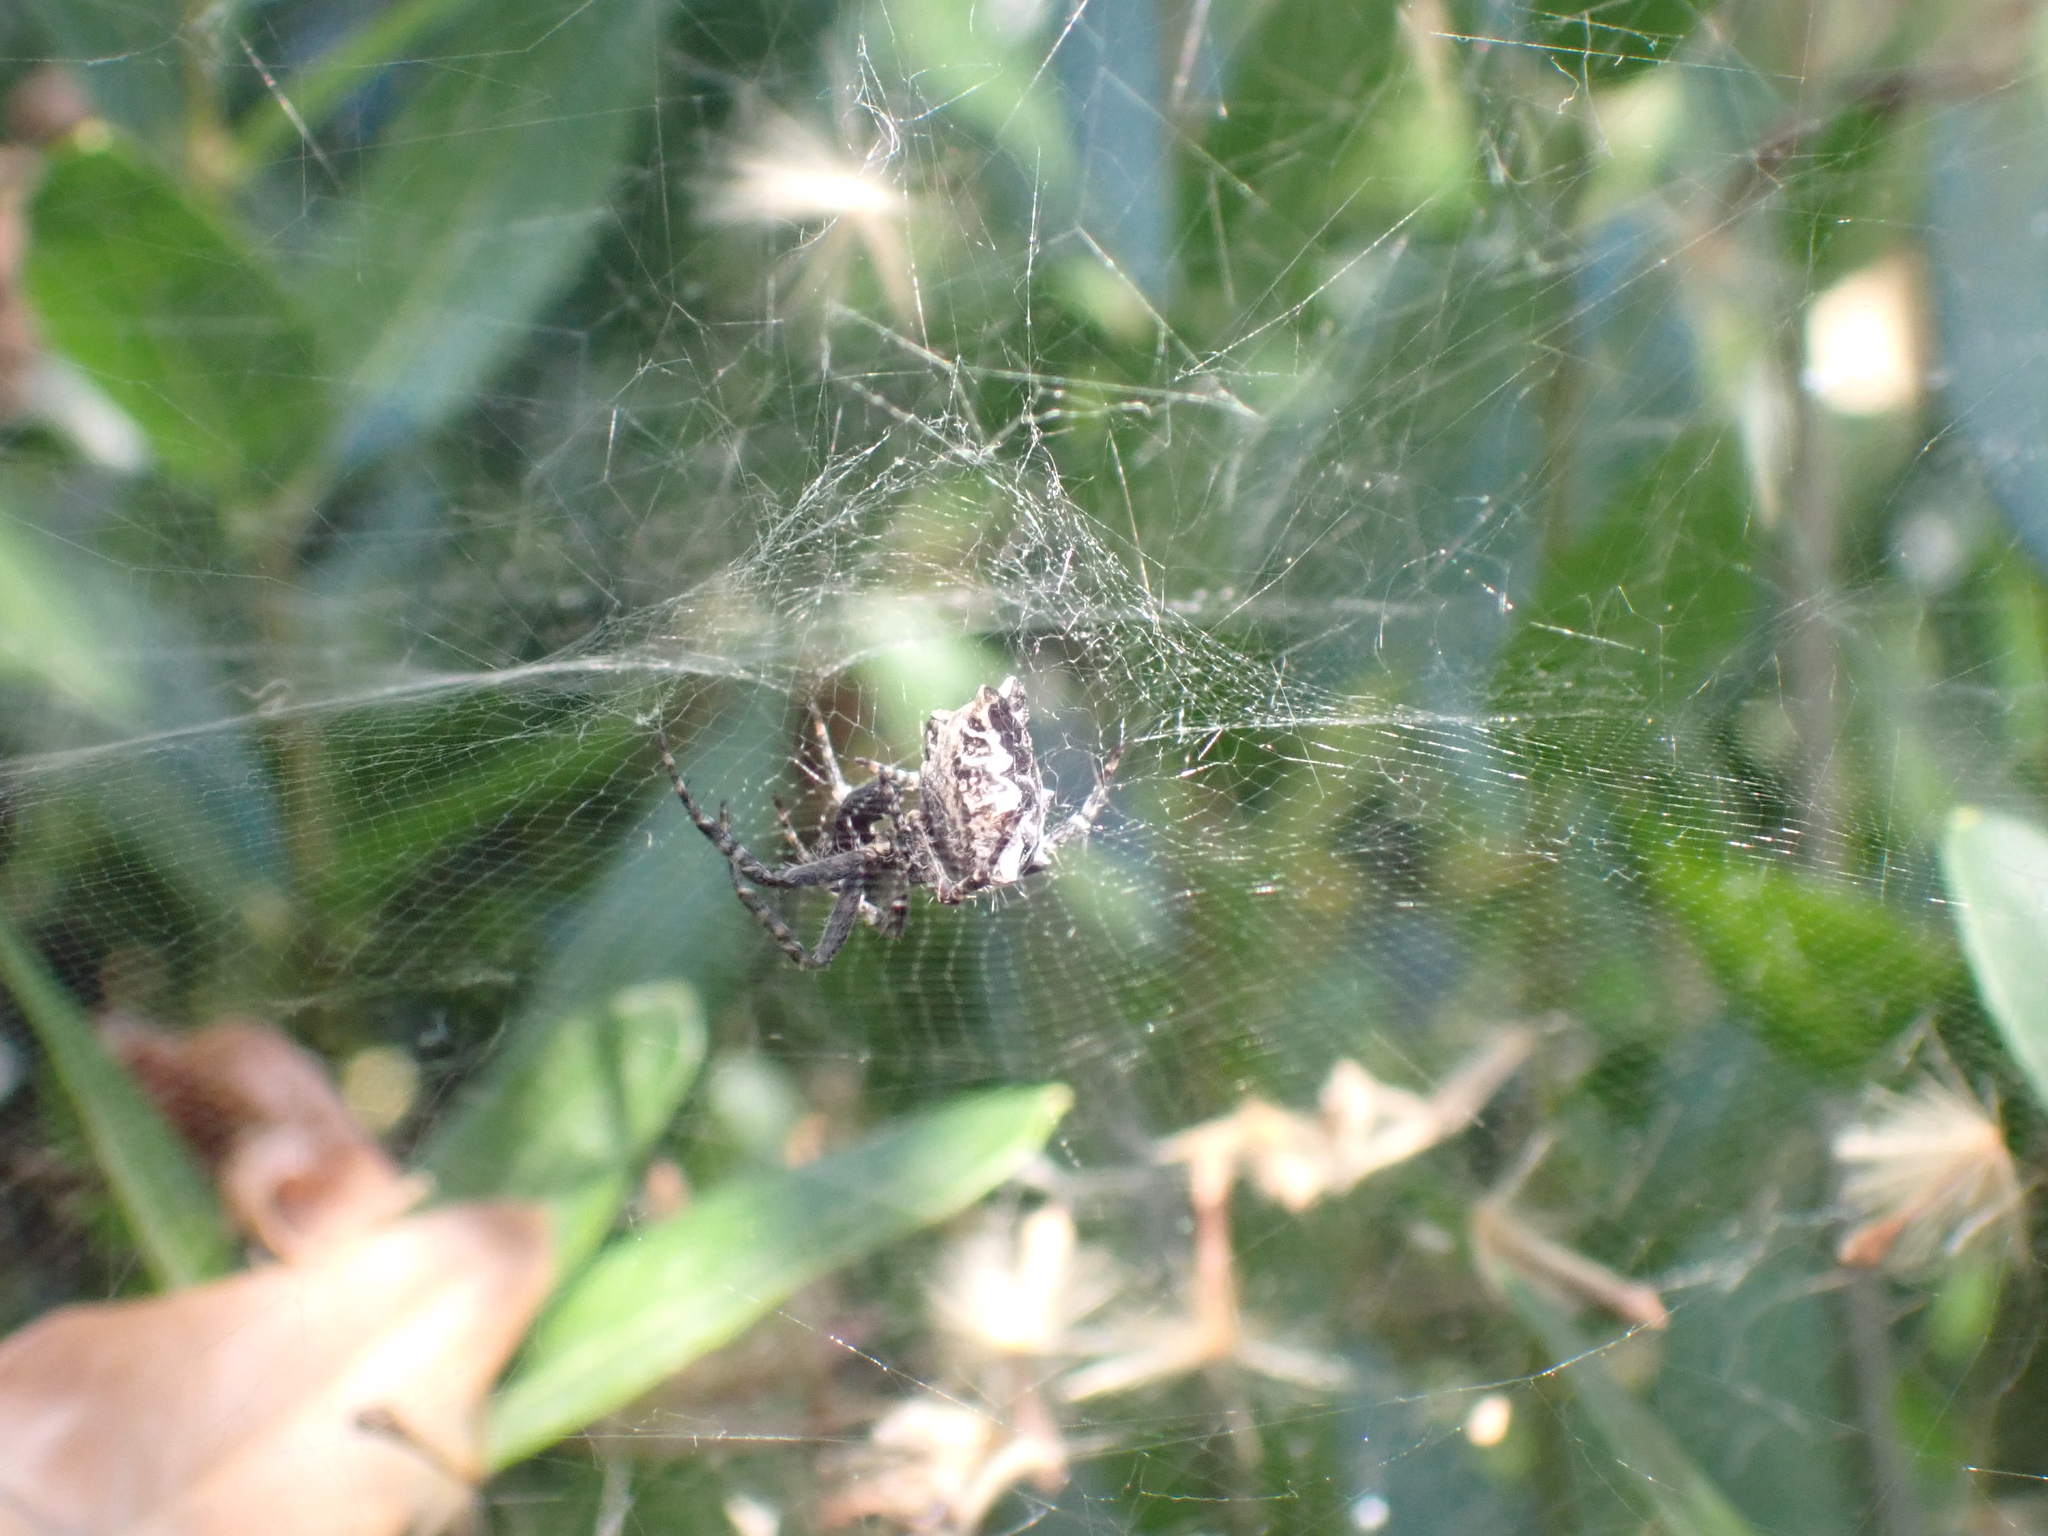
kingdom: Animalia
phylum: Arthropoda
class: Arachnida
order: Araneae
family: Araneidae
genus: Cyrtophora
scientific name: Cyrtophora citricola
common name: Orb weavers
